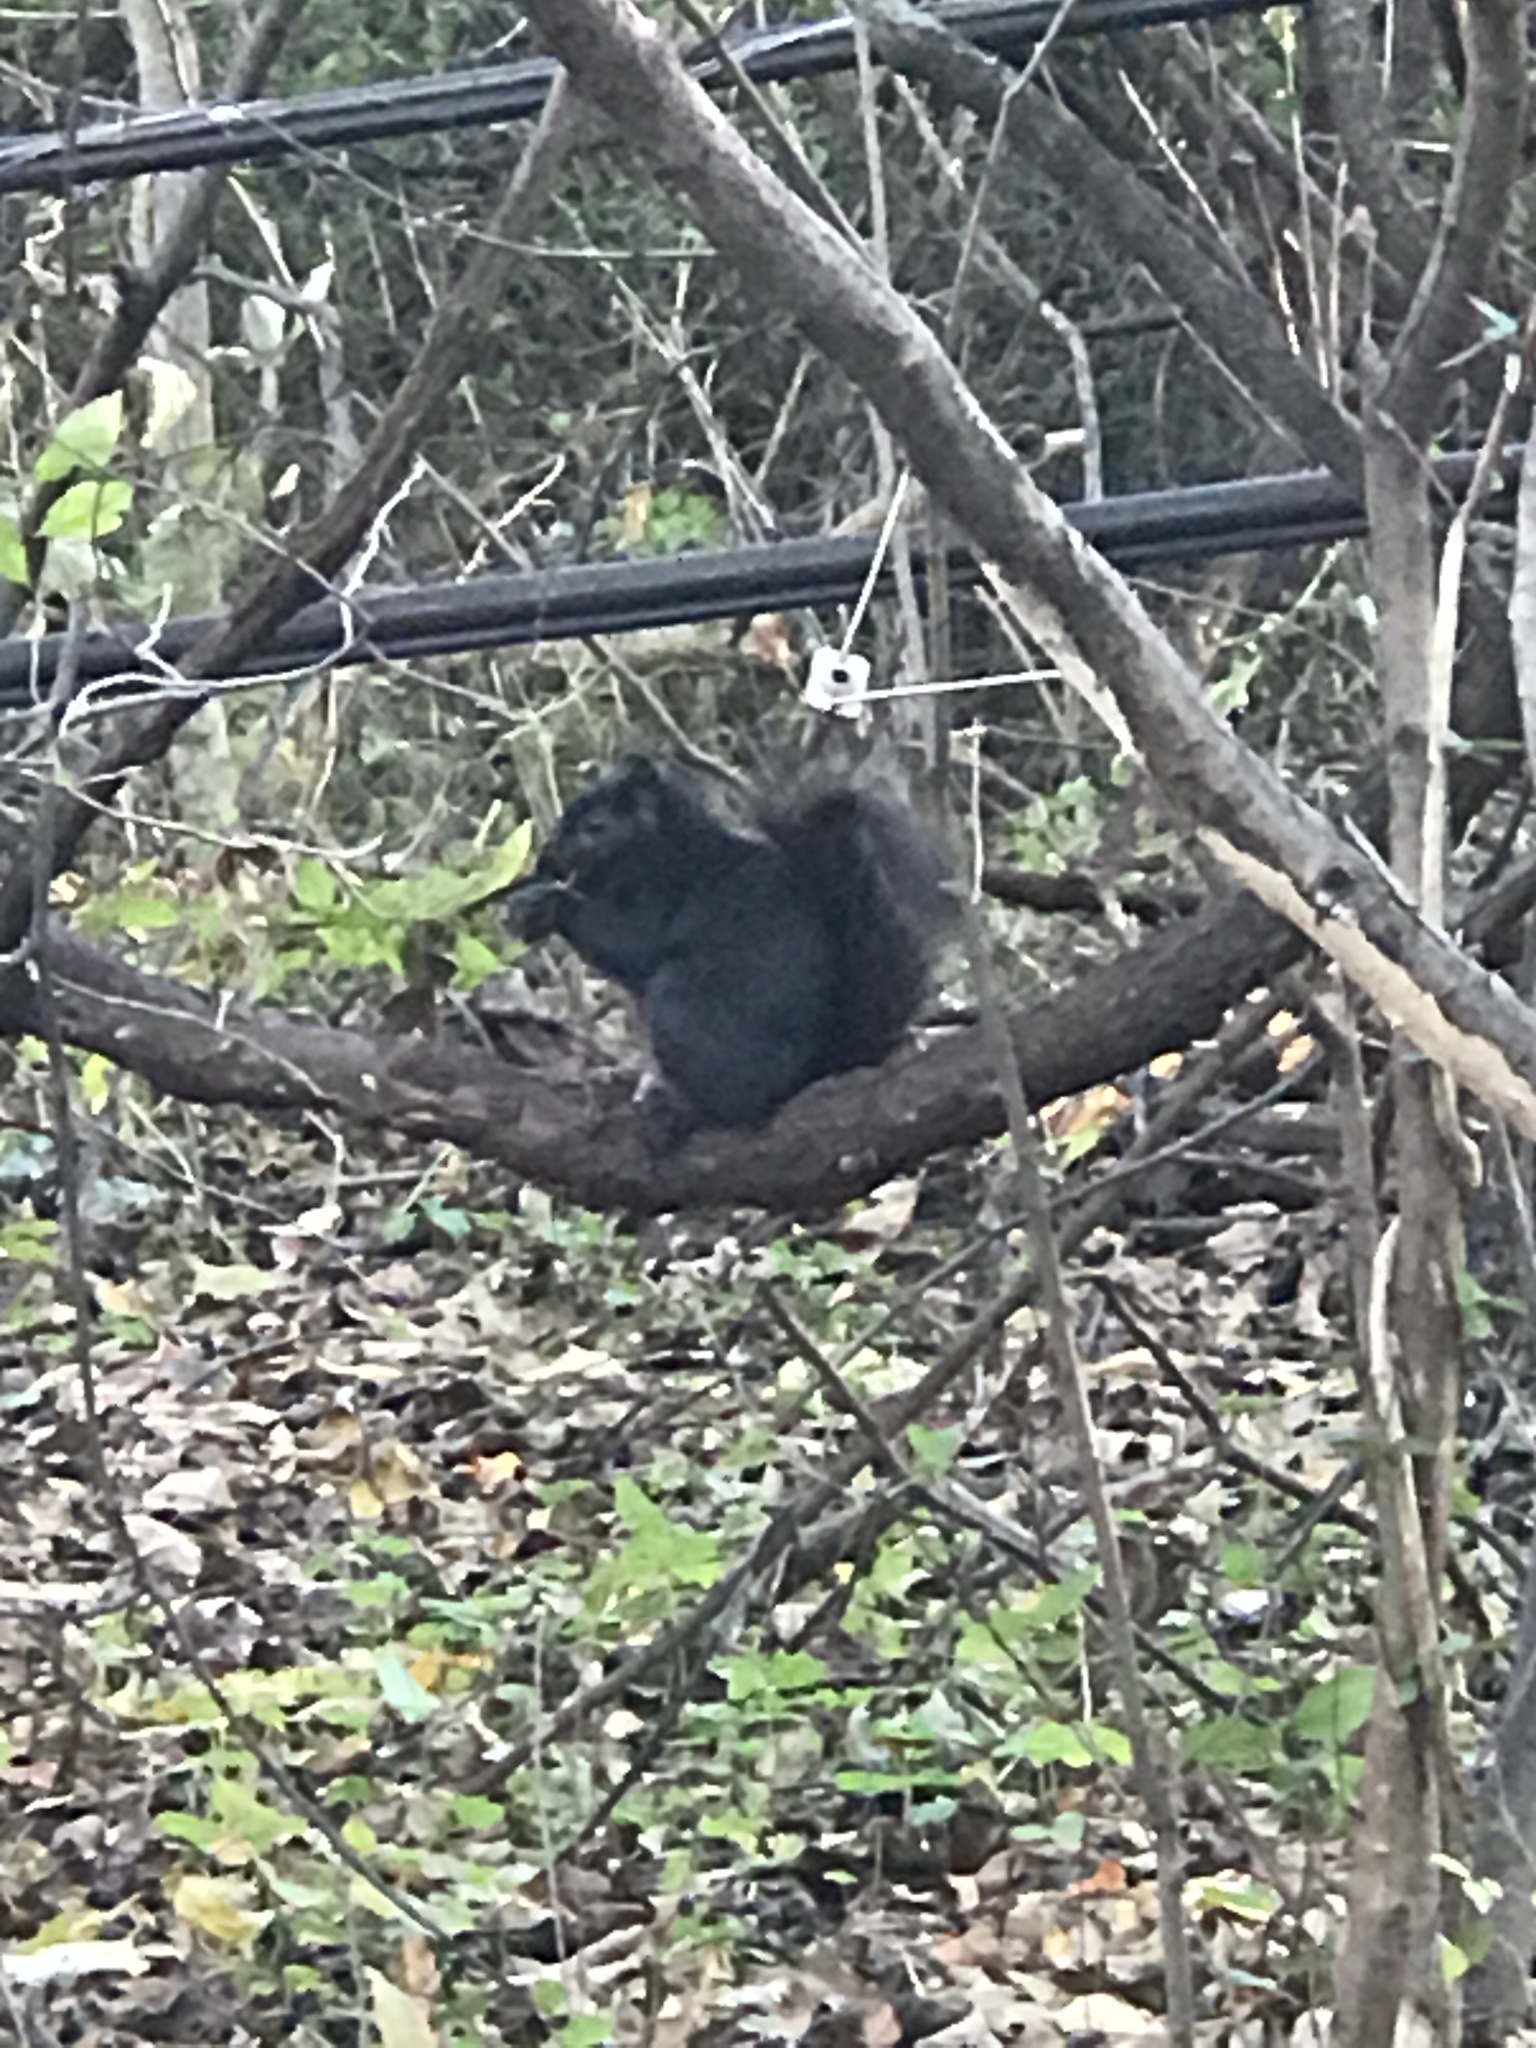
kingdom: Animalia
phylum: Chordata
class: Mammalia
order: Rodentia
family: Sciuridae
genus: Sciurus
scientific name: Sciurus carolinensis
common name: Eastern gray squirrel
